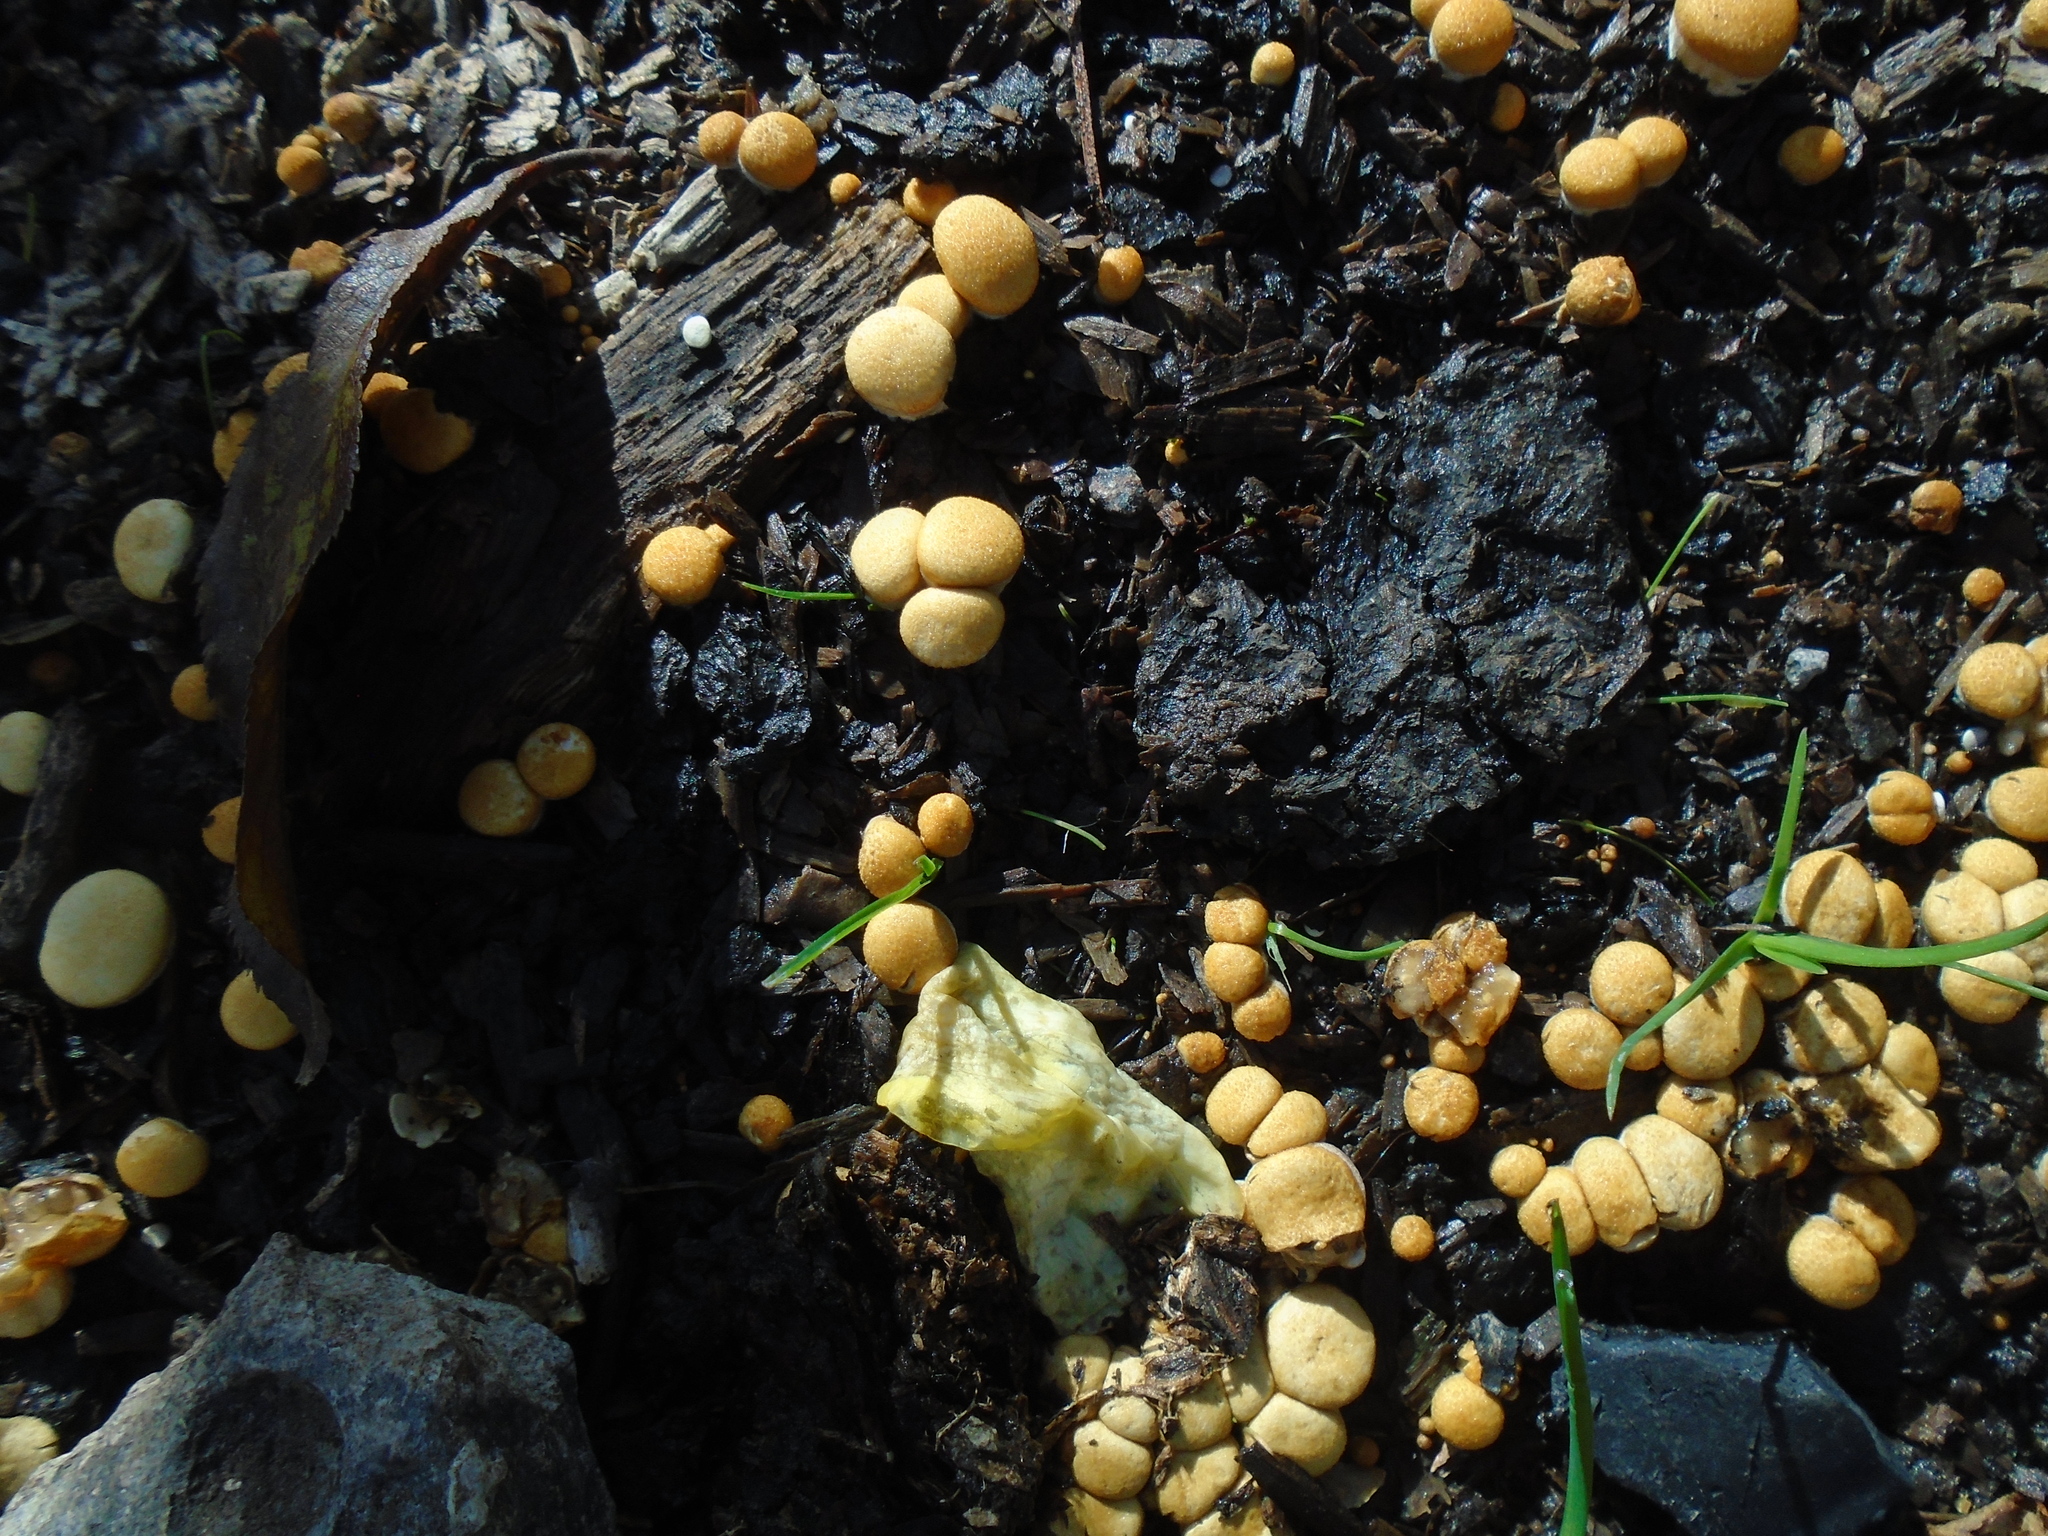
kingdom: Fungi
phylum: Basidiomycota
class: Agaricomycetes
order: Agaricales
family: Nidulariaceae
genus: Crucibulum
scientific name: Crucibulum laeve
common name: Common bird's nest
